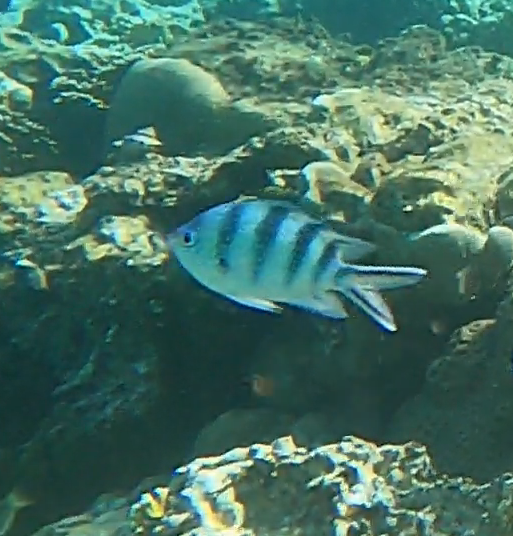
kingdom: Animalia
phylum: Chordata
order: Perciformes
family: Pomacentridae
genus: Abudefduf
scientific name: Abudefduf sexfasciatus
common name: Scissortail sergeant
